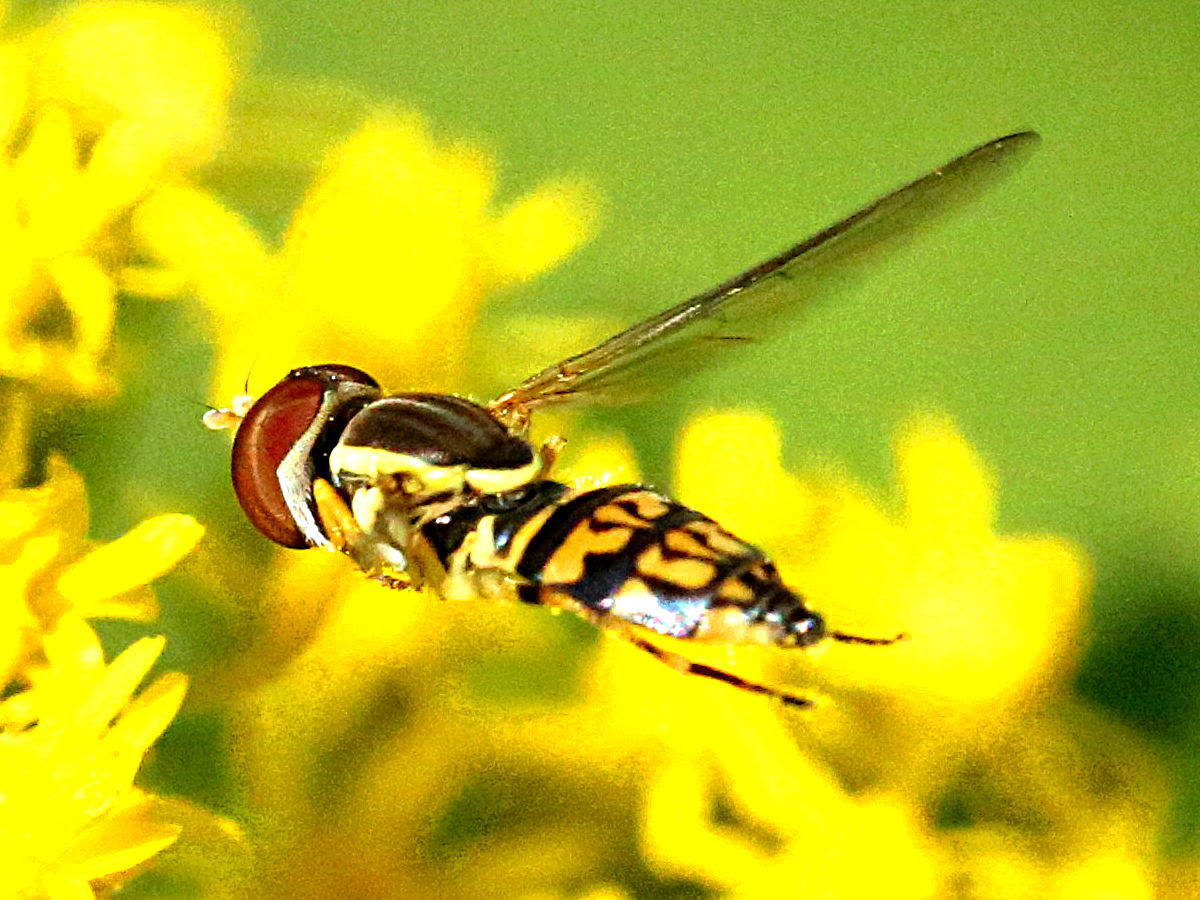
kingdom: Animalia
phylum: Arthropoda
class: Insecta
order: Diptera
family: Syrphidae
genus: Toxomerus
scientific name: Toxomerus geminatus
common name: Eastern calligrapher
